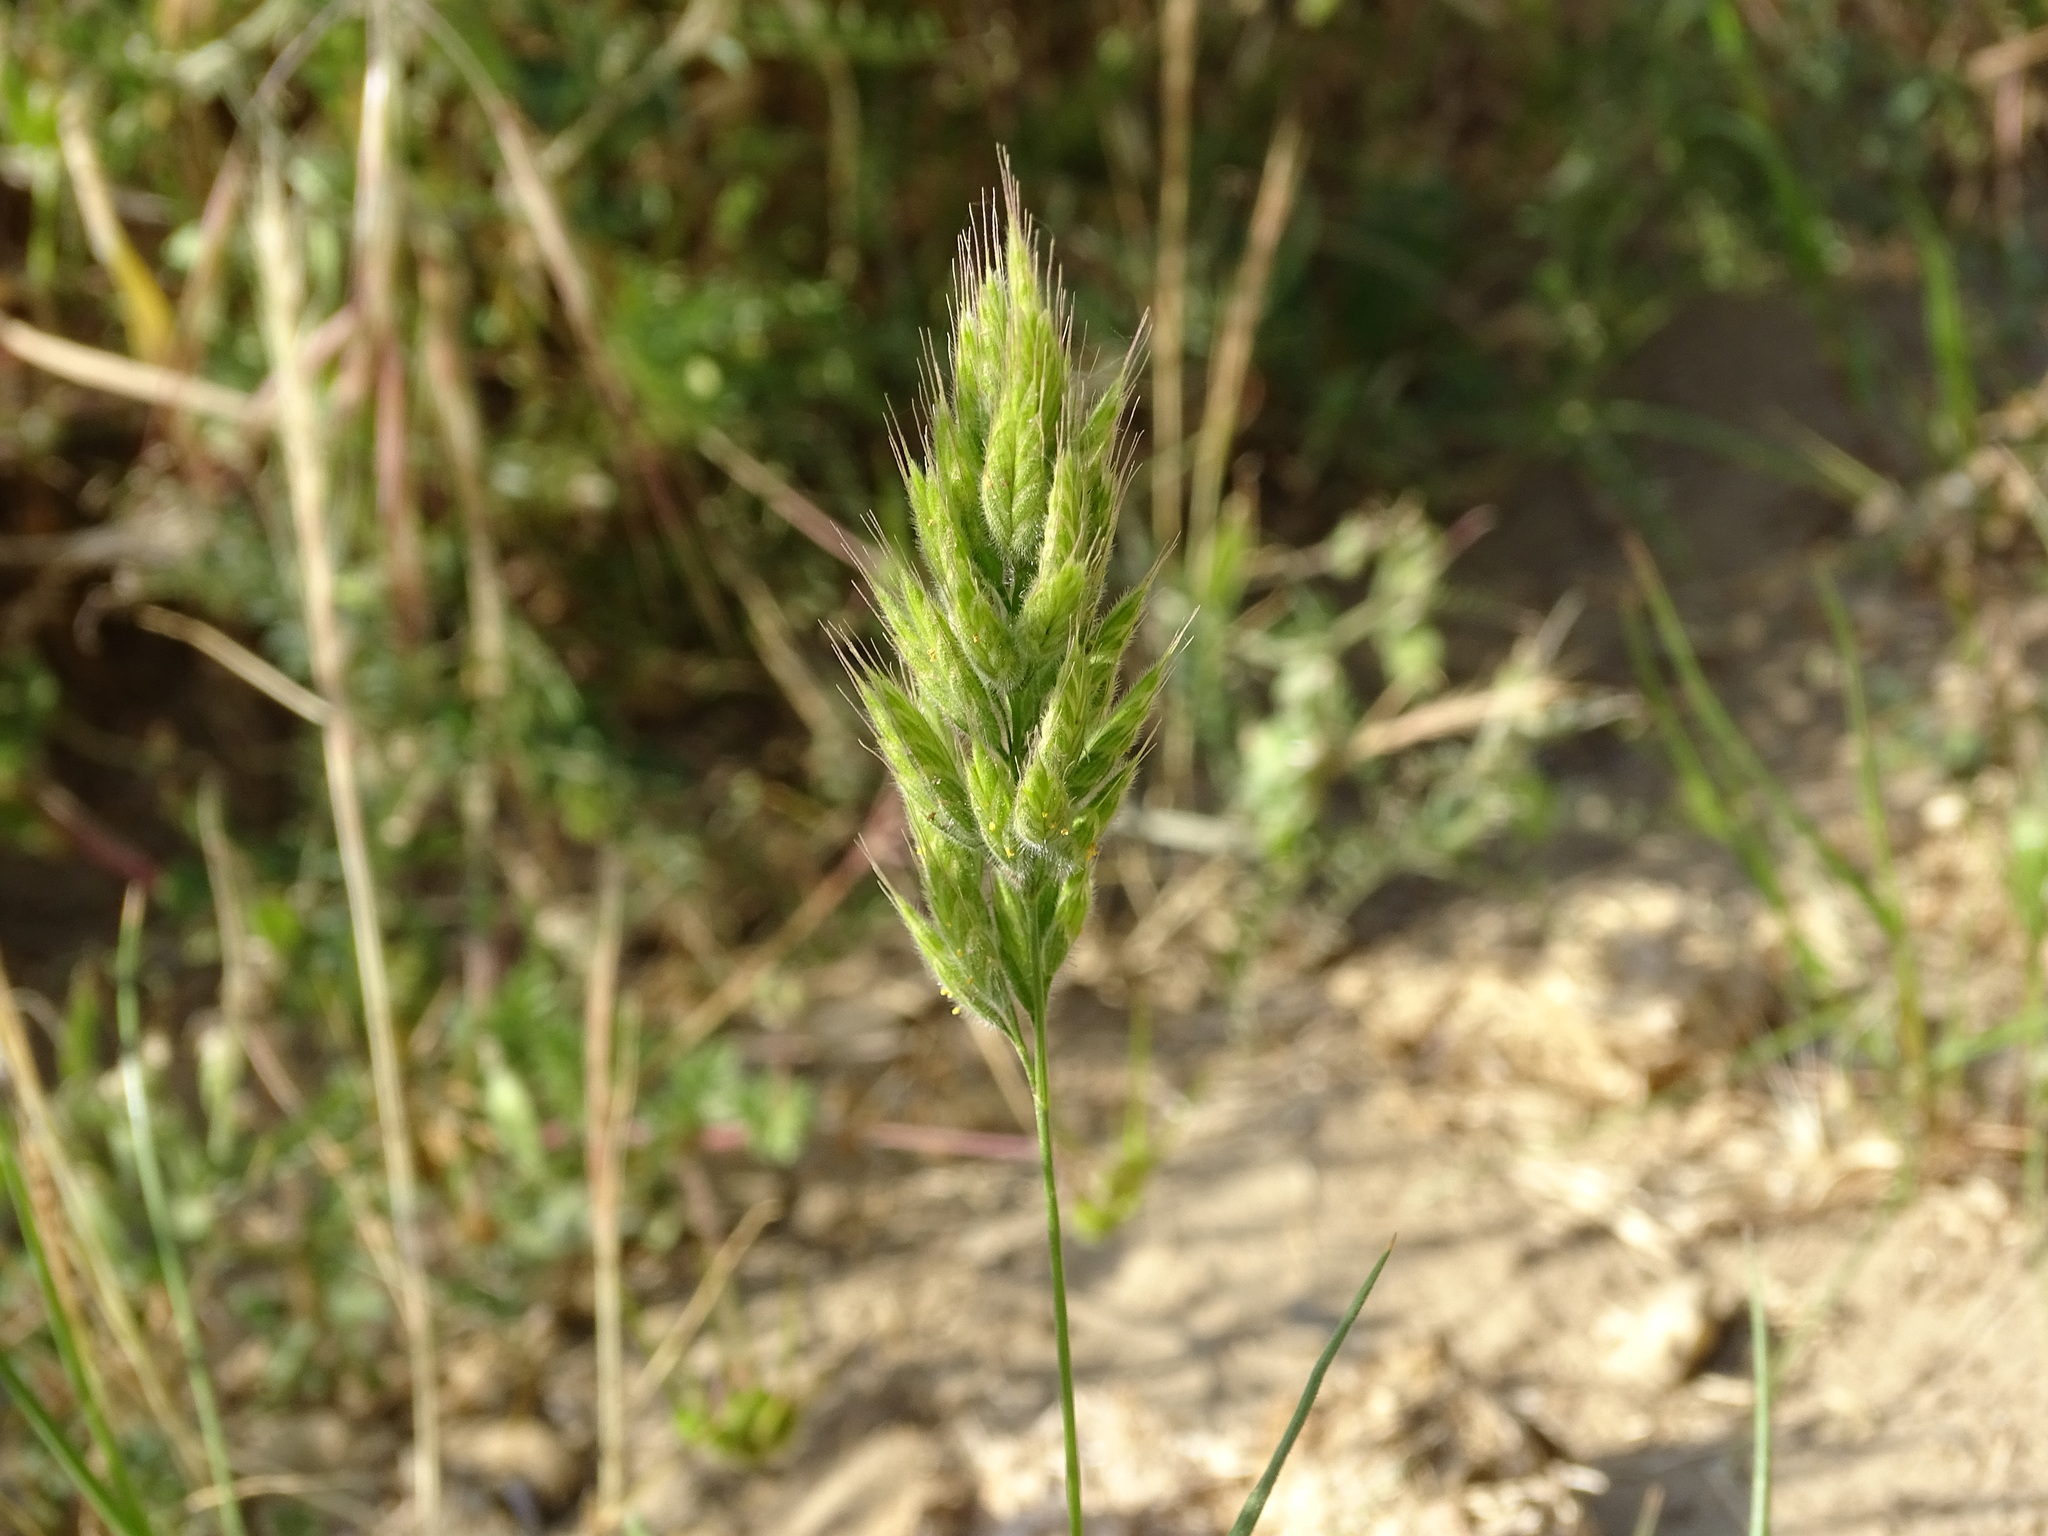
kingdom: Plantae
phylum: Tracheophyta
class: Liliopsida
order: Poales
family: Poaceae
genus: Bromus
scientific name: Bromus hordeaceus
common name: Soft brome
